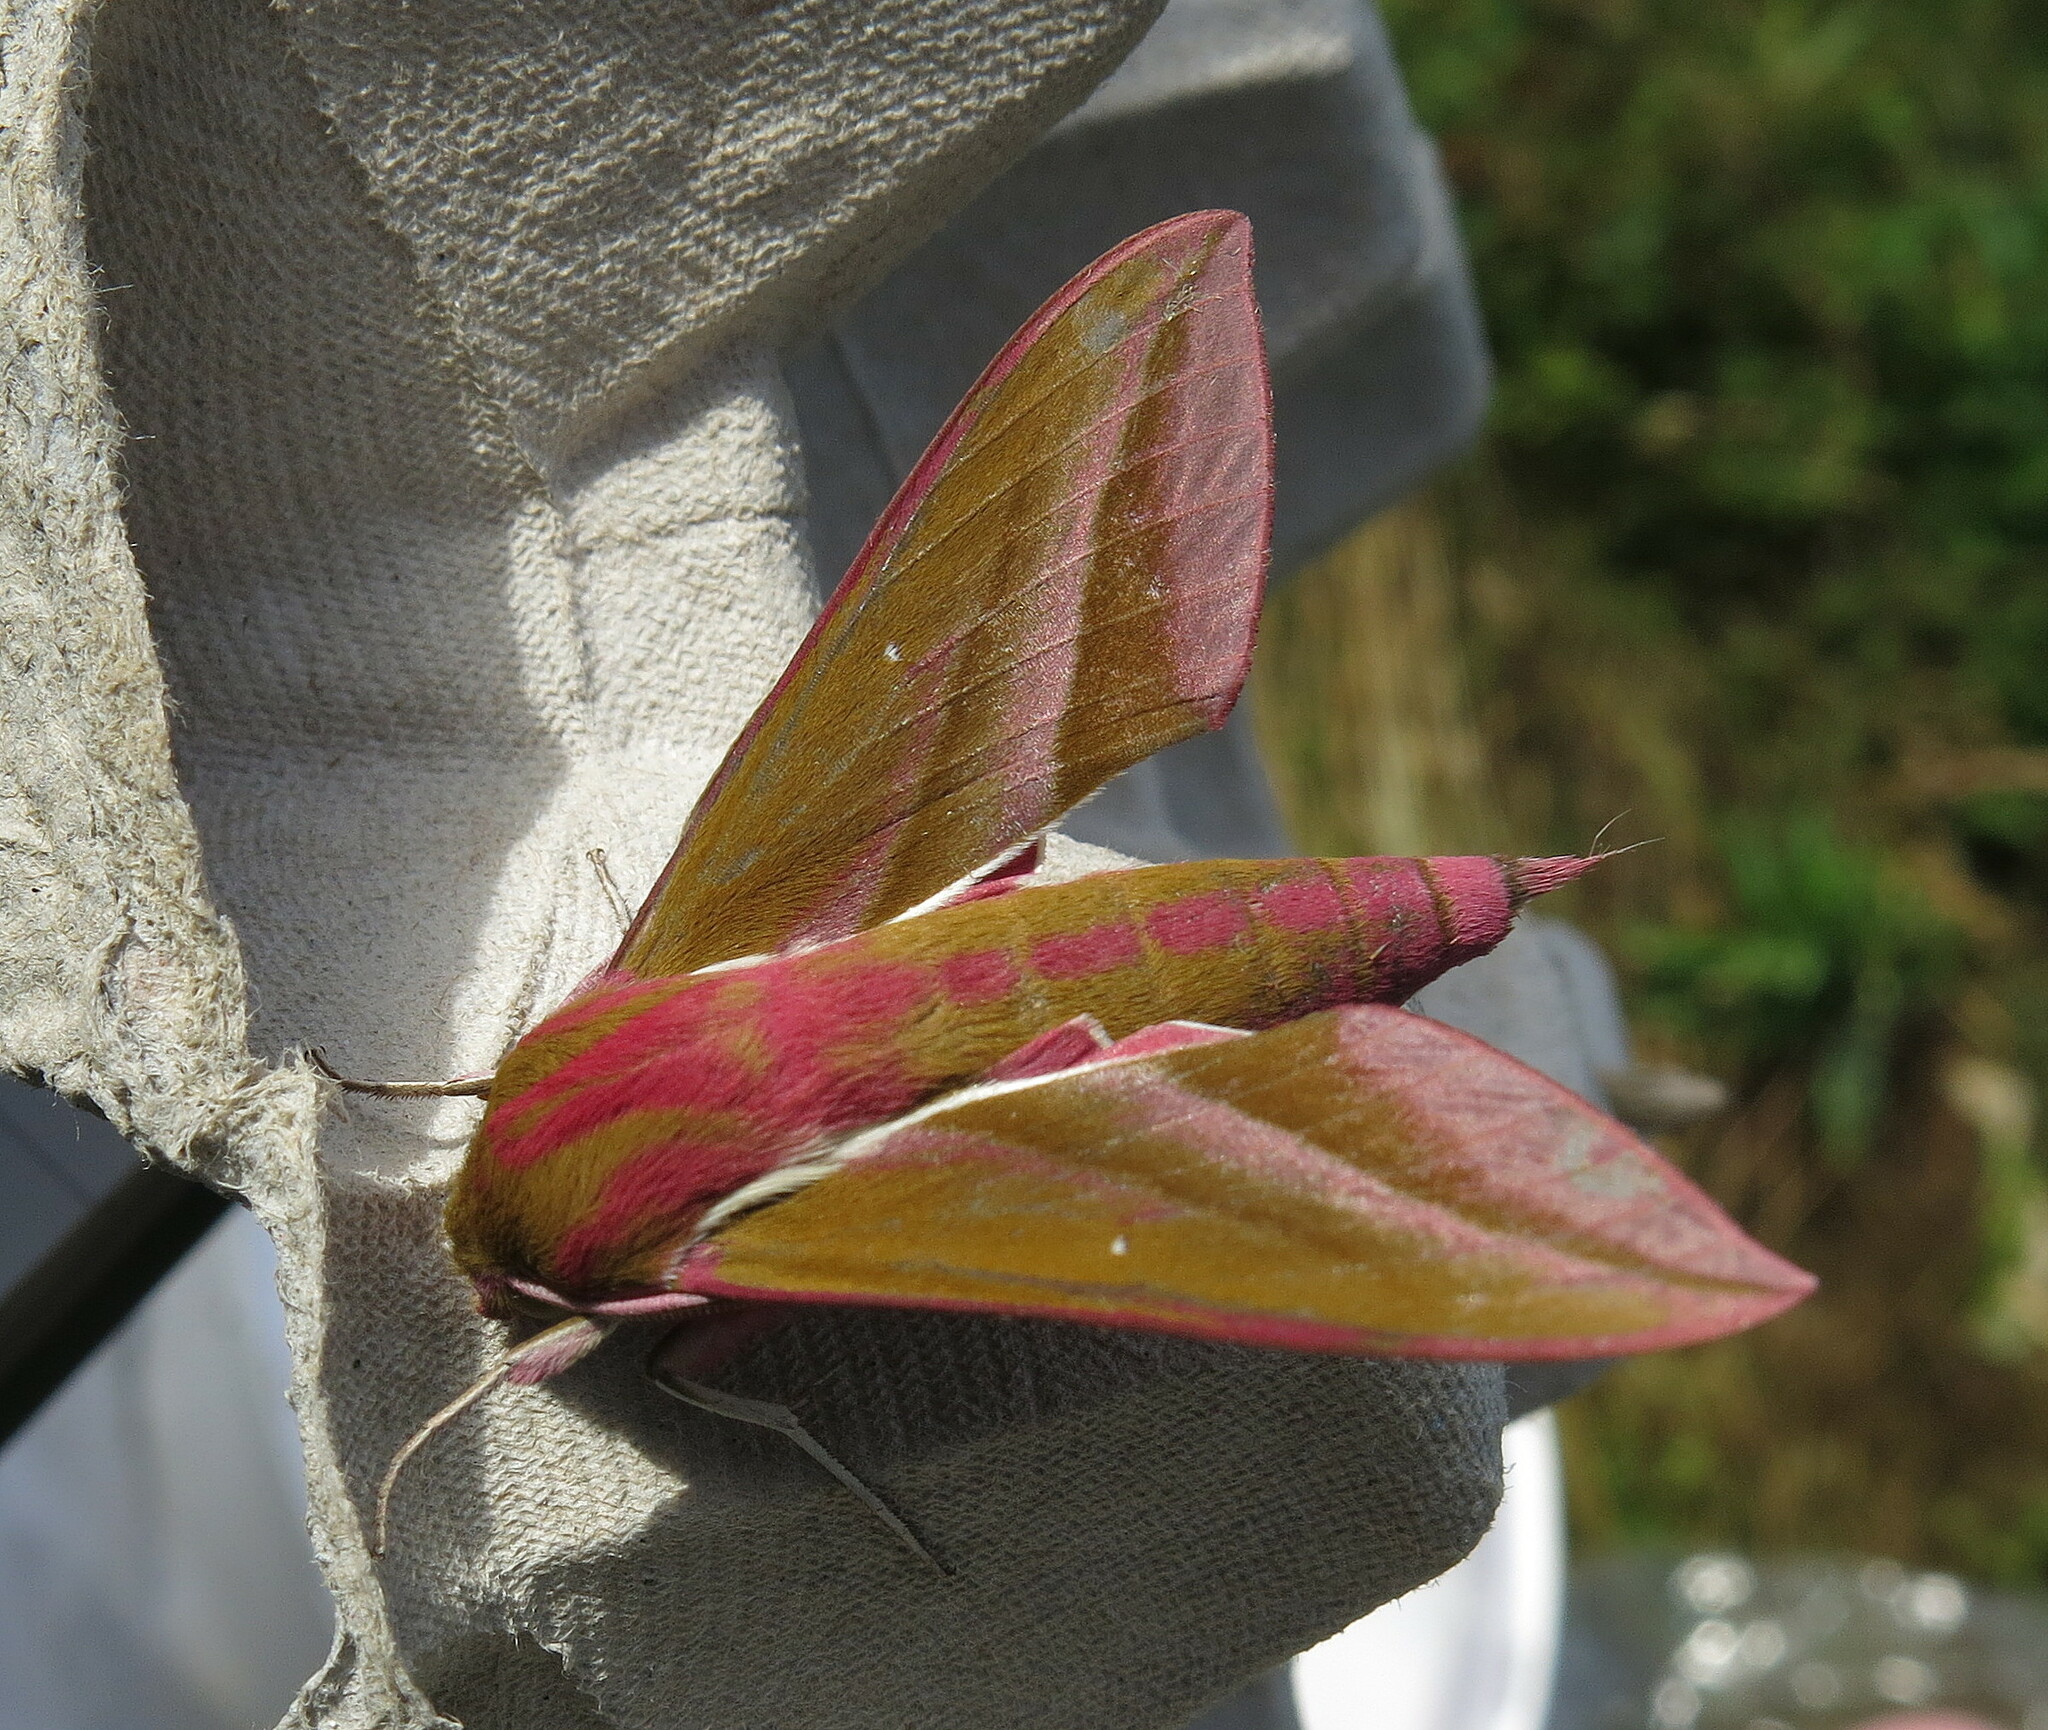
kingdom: Animalia
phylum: Arthropoda
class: Insecta
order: Lepidoptera
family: Sphingidae
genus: Deilephila
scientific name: Deilephila elpenor
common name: Elephant hawk-moth
